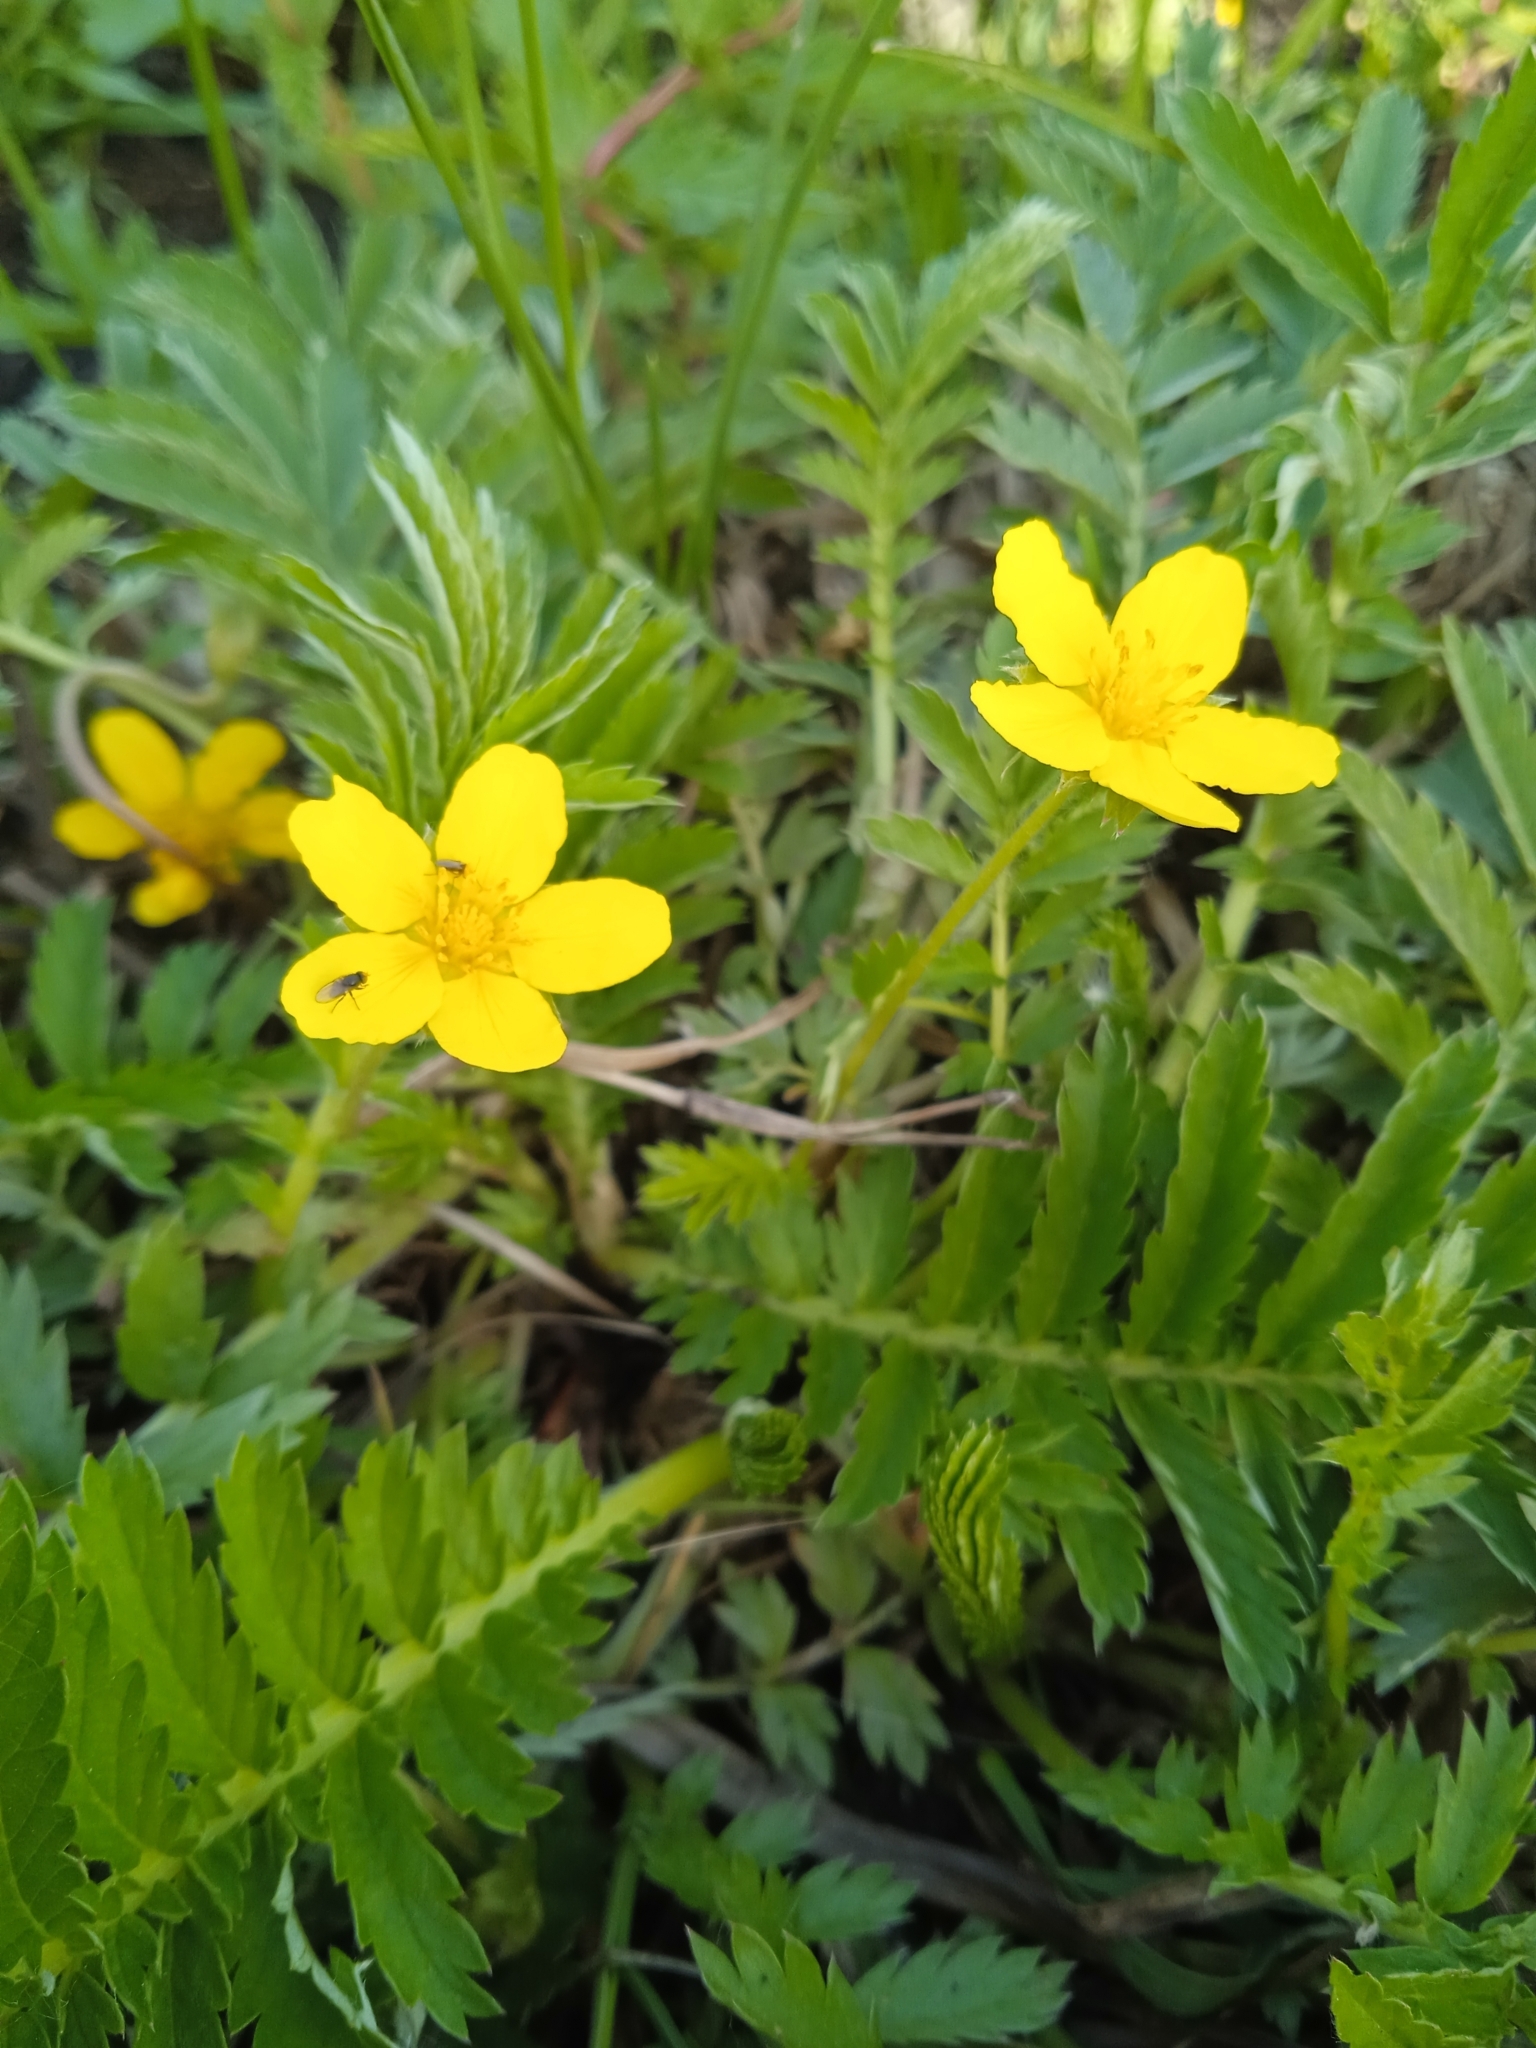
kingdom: Plantae
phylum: Tracheophyta
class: Magnoliopsida
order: Rosales
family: Rosaceae
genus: Argentina
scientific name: Argentina anserina
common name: Common silverweed
